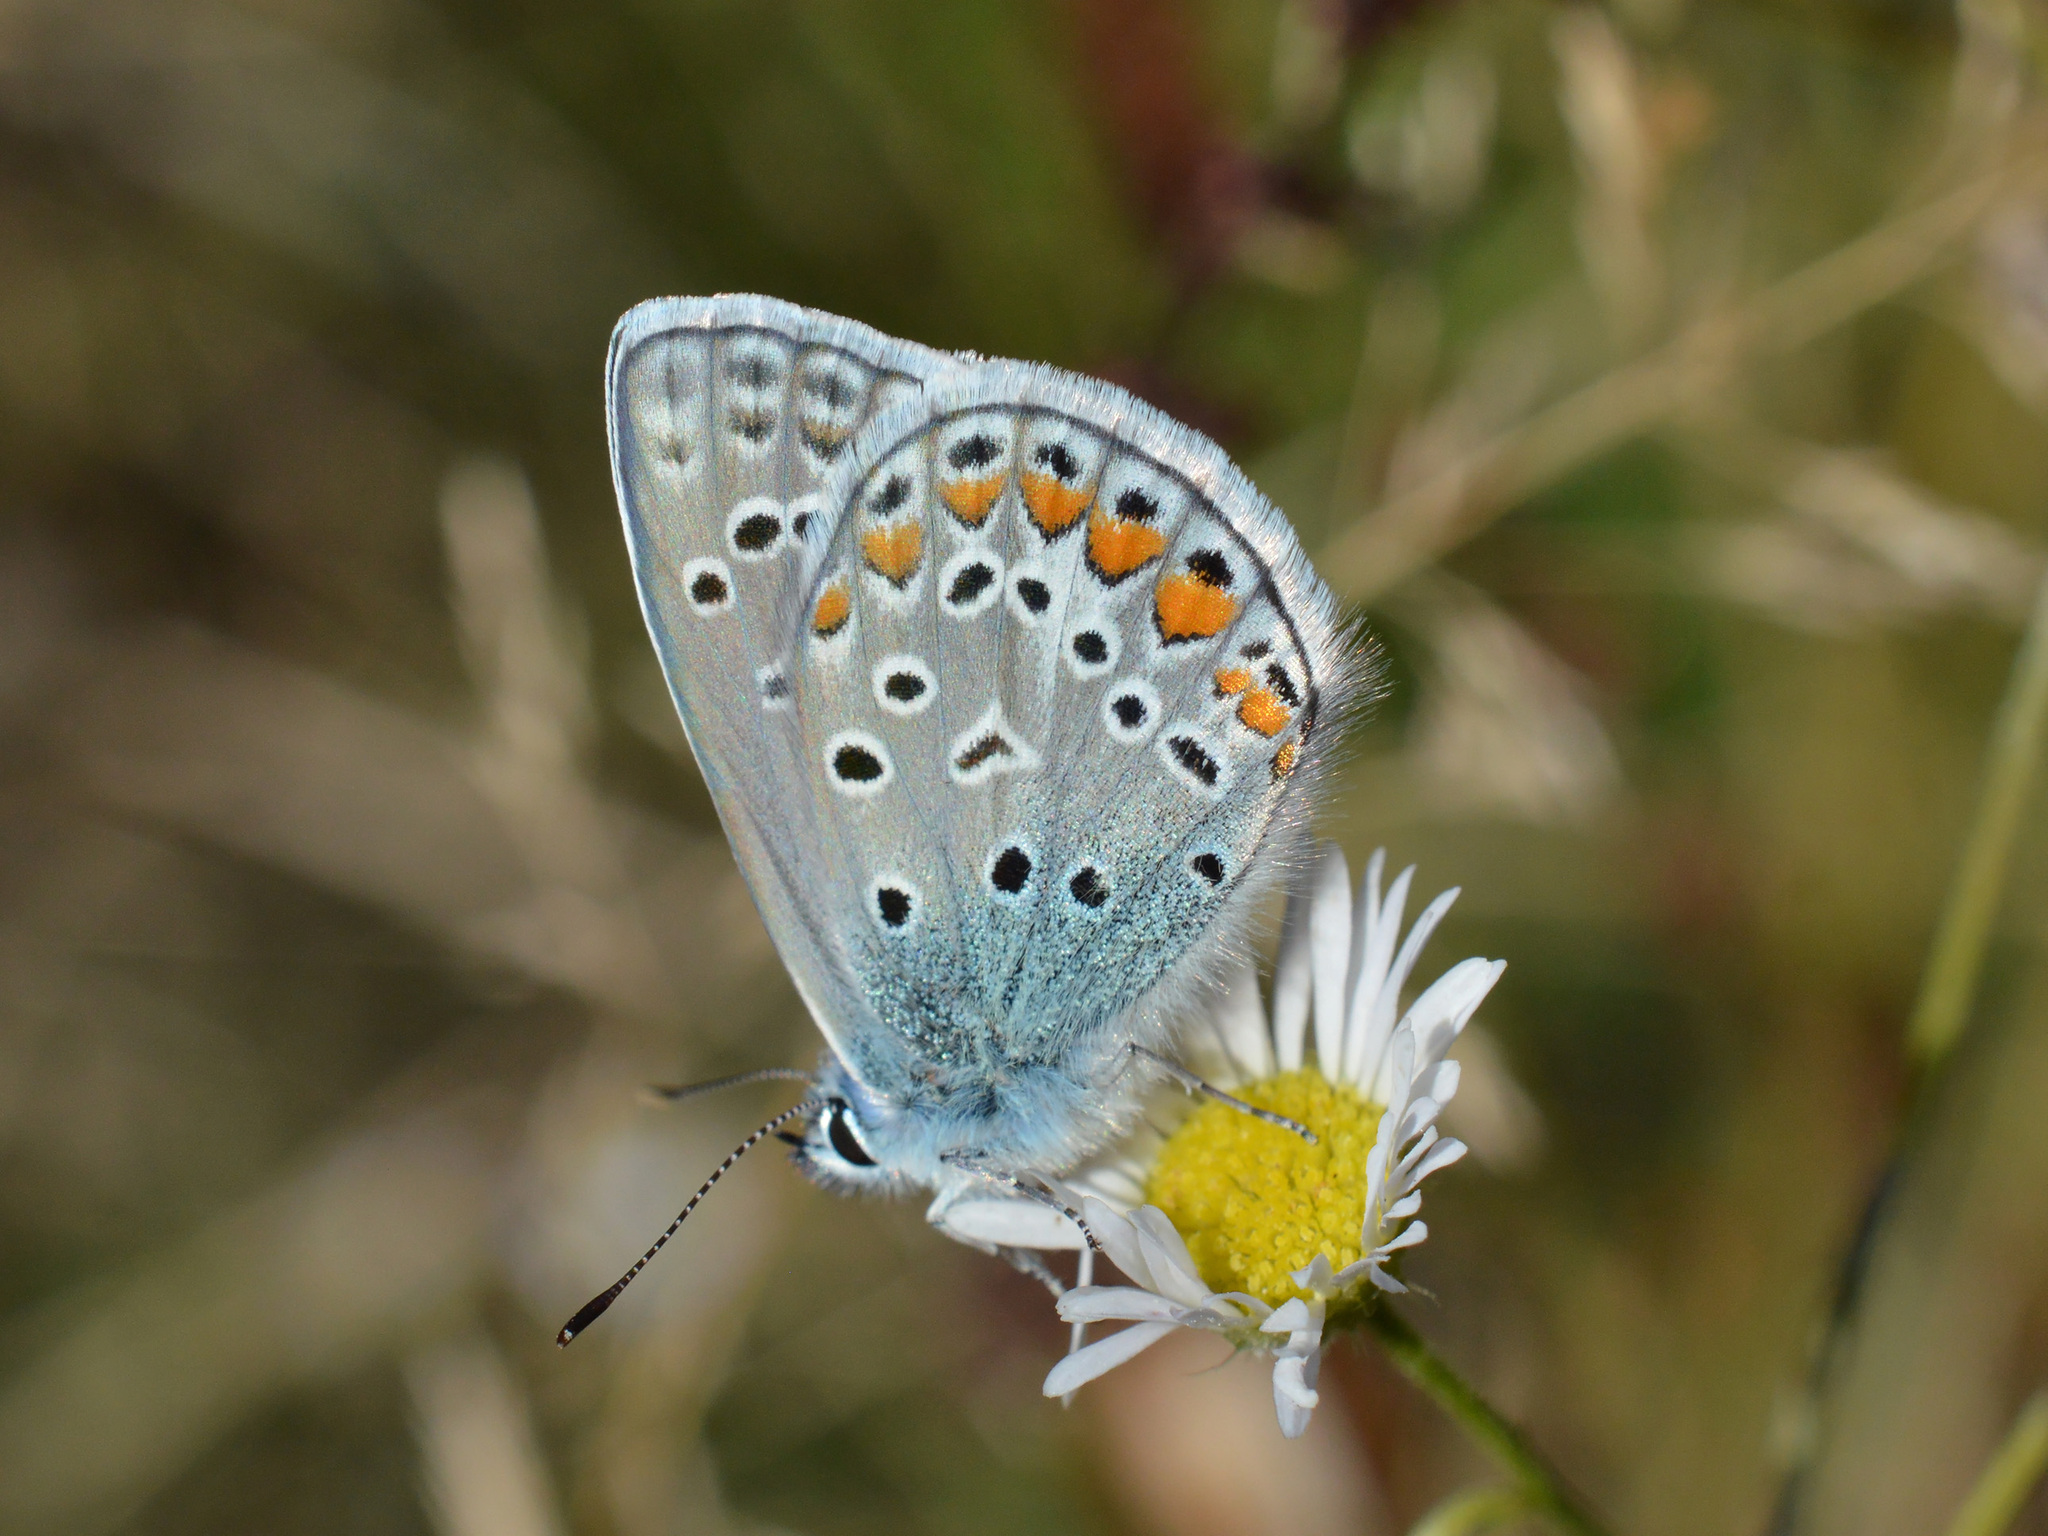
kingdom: Animalia
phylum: Arthropoda
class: Insecta
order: Lepidoptera
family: Lycaenidae
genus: Polyommatus
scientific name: Polyommatus icarus
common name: Common blue
